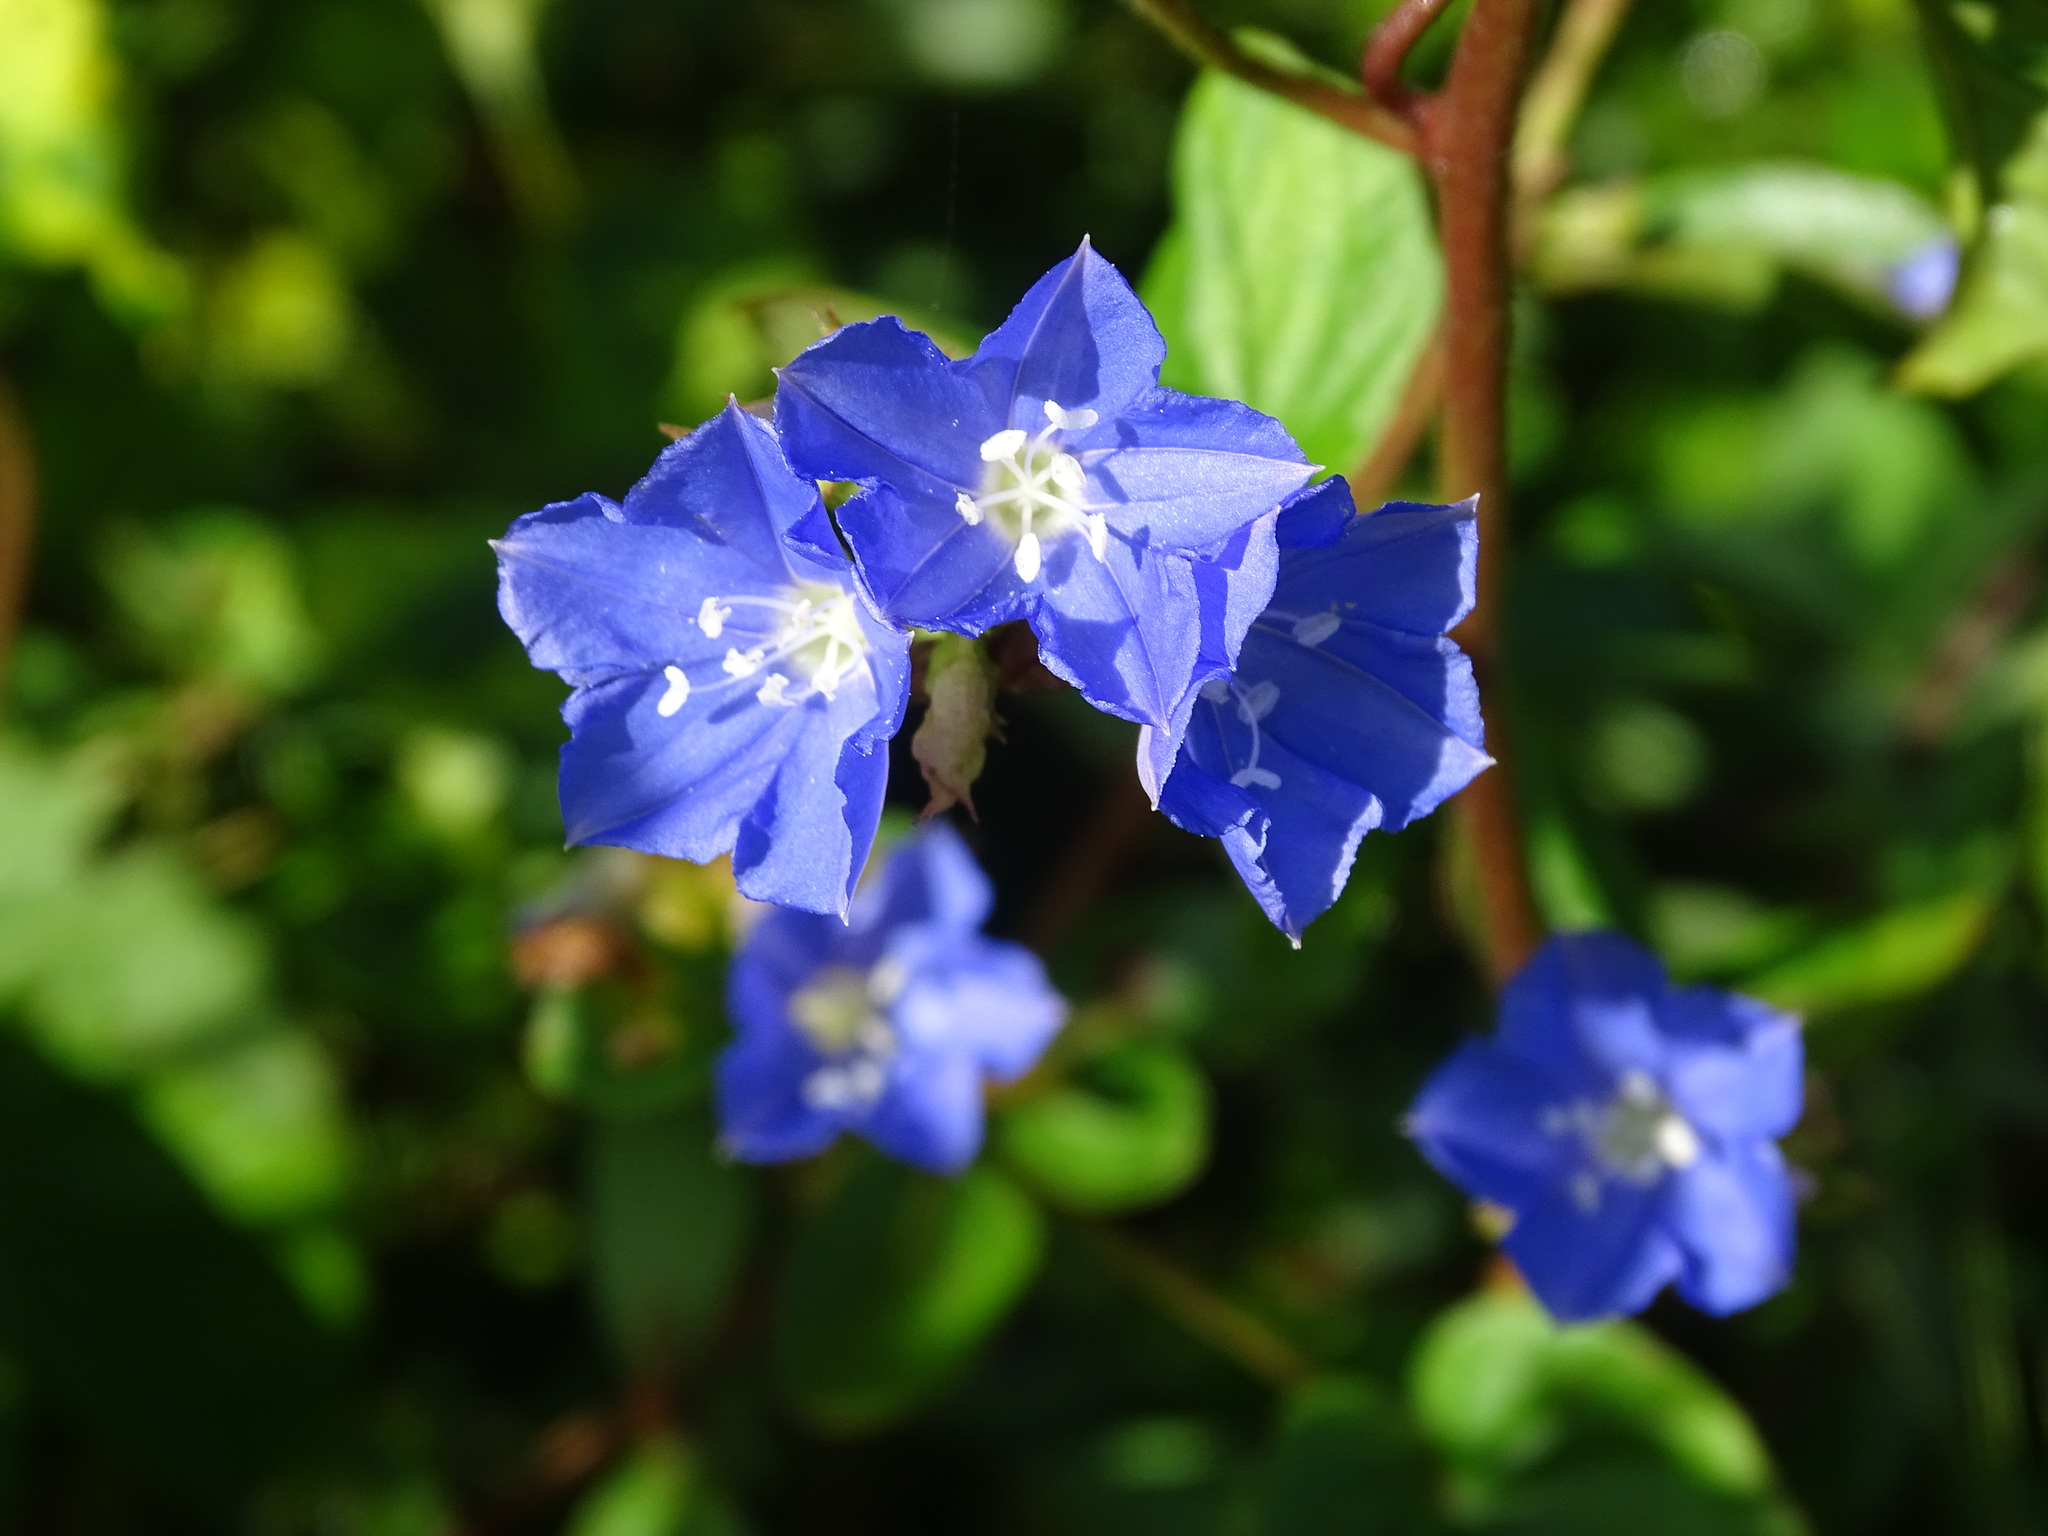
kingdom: Plantae
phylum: Tracheophyta
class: Magnoliopsida
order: Solanales
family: Convolvulaceae
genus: Jacquemontia
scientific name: Jacquemontia pentanthos
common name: Skyblue clustervine
